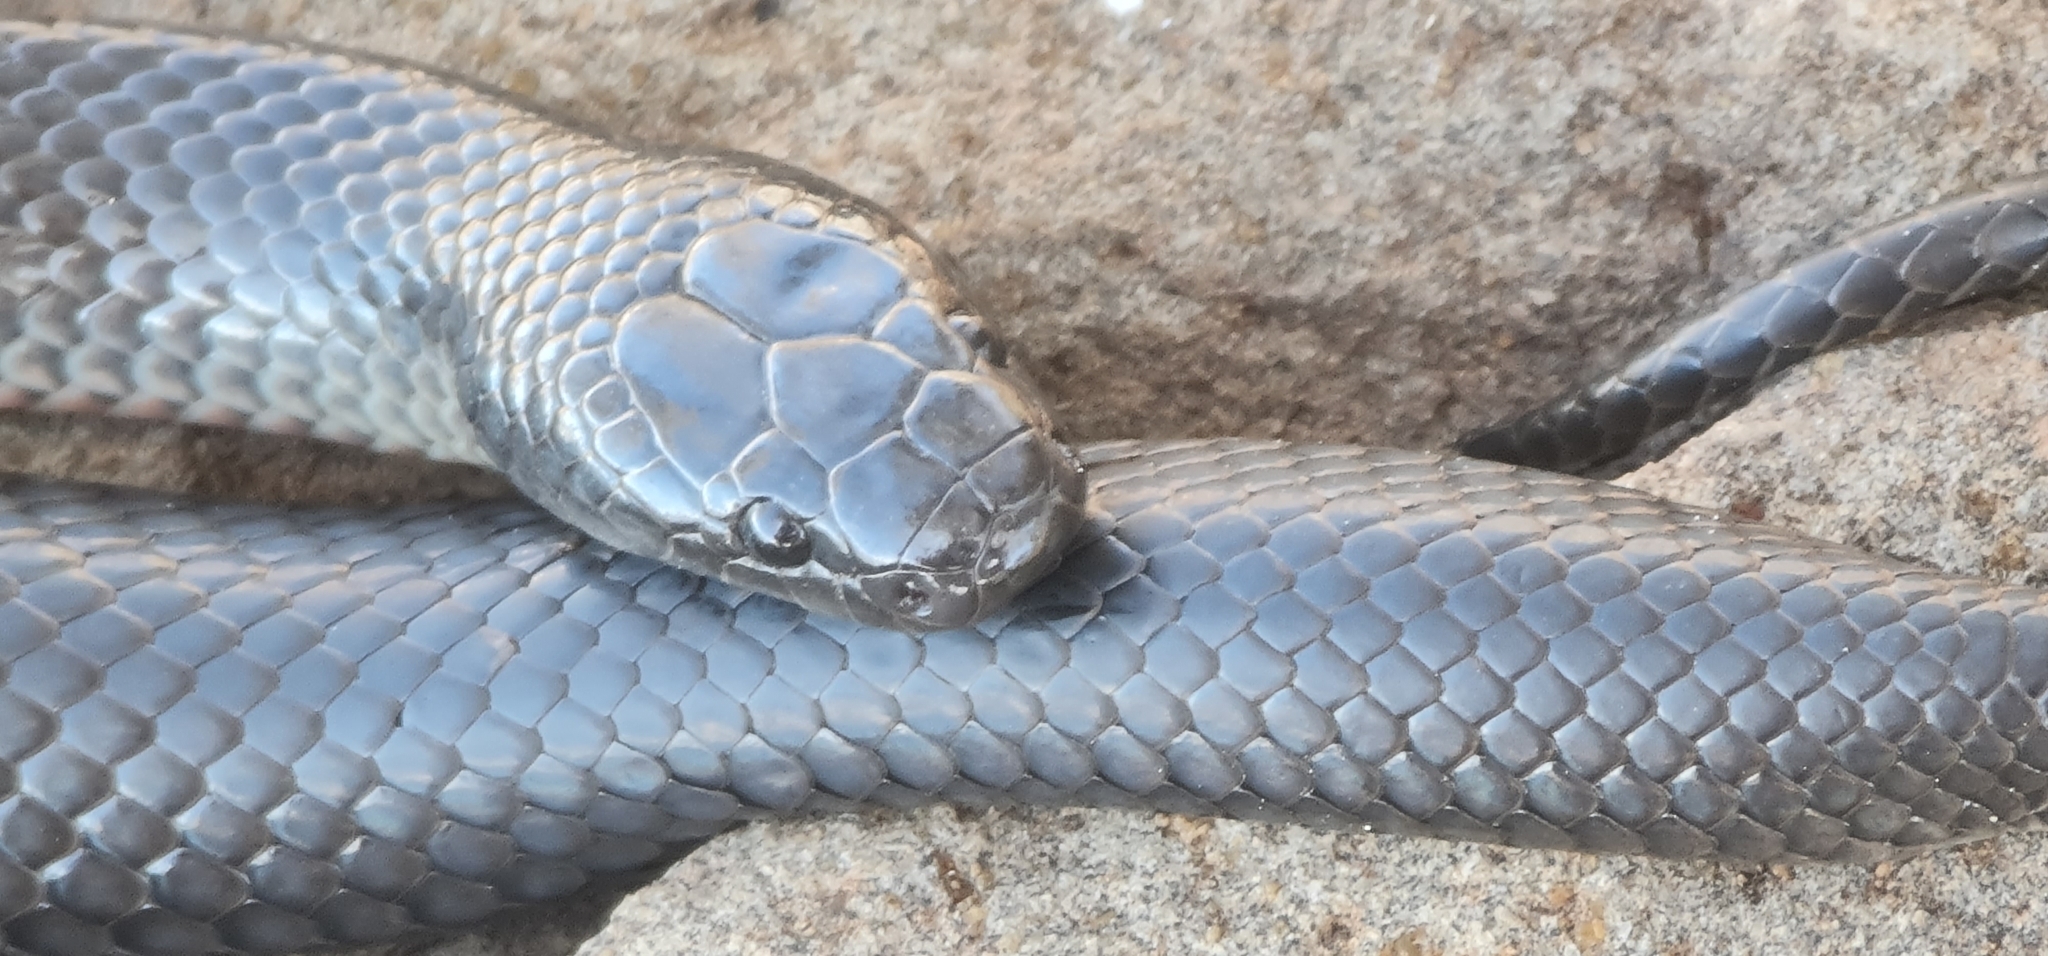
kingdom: Animalia
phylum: Chordata
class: Squamata
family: Elapidae
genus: Cryptophis
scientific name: Cryptophis nigrescens
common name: Eastern small-eyed snake
